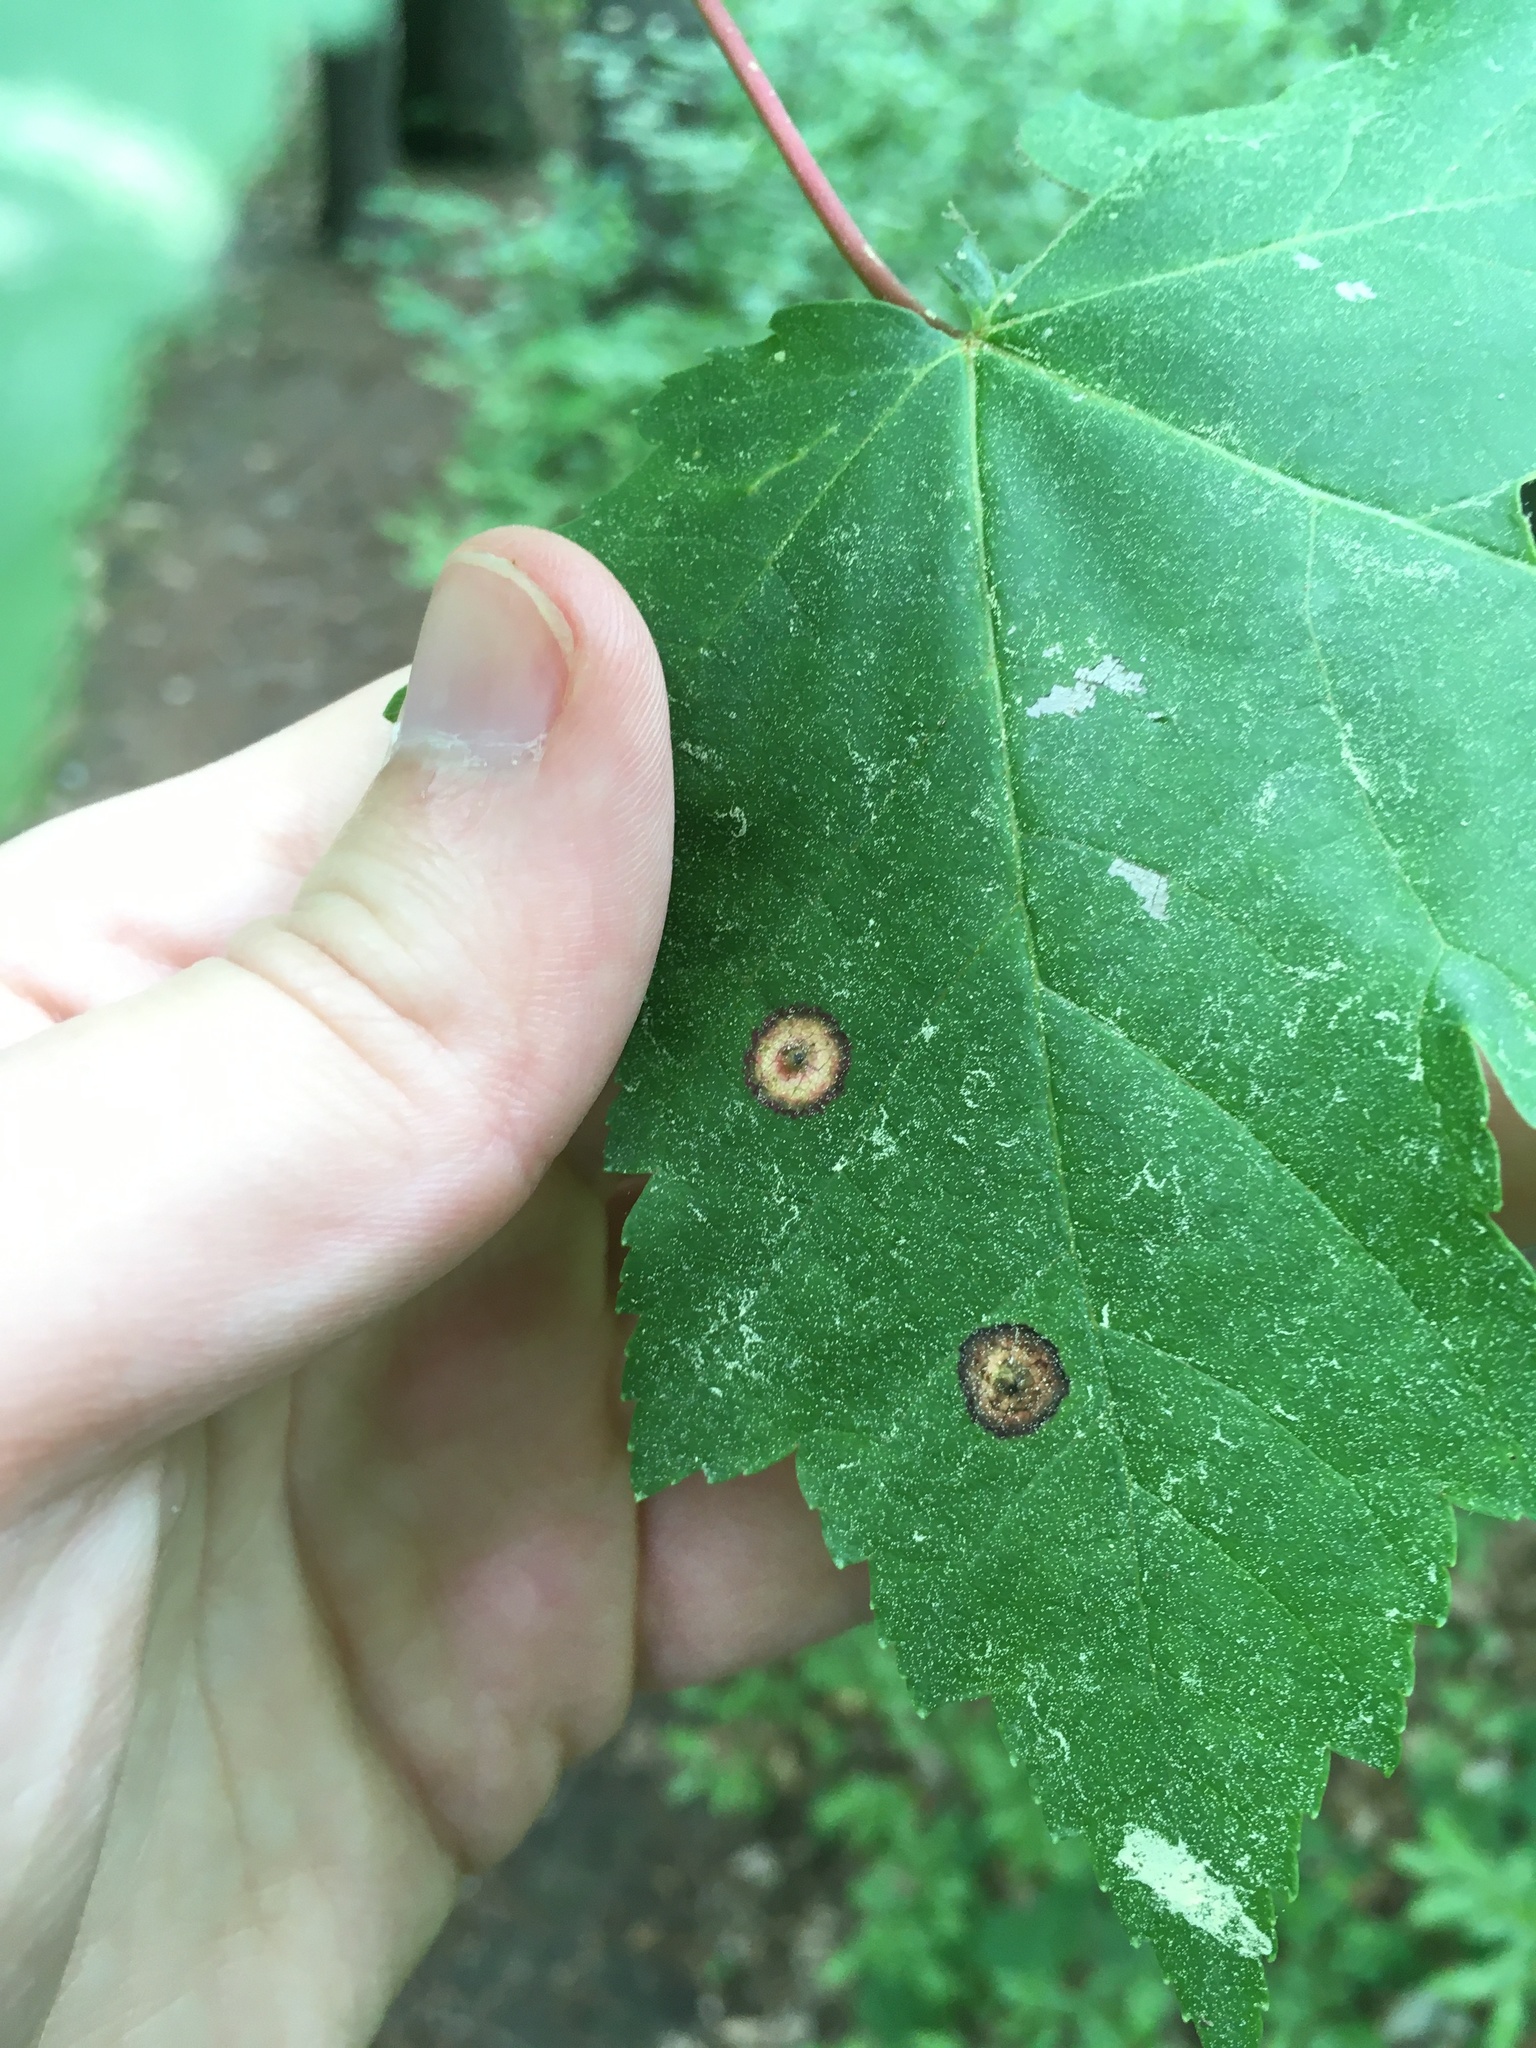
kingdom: Animalia
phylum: Arthropoda
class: Insecta
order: Diptera
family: Cecidomyiidae
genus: Acericecis
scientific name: Acericecis ocellaris
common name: Ocellate gall midge
